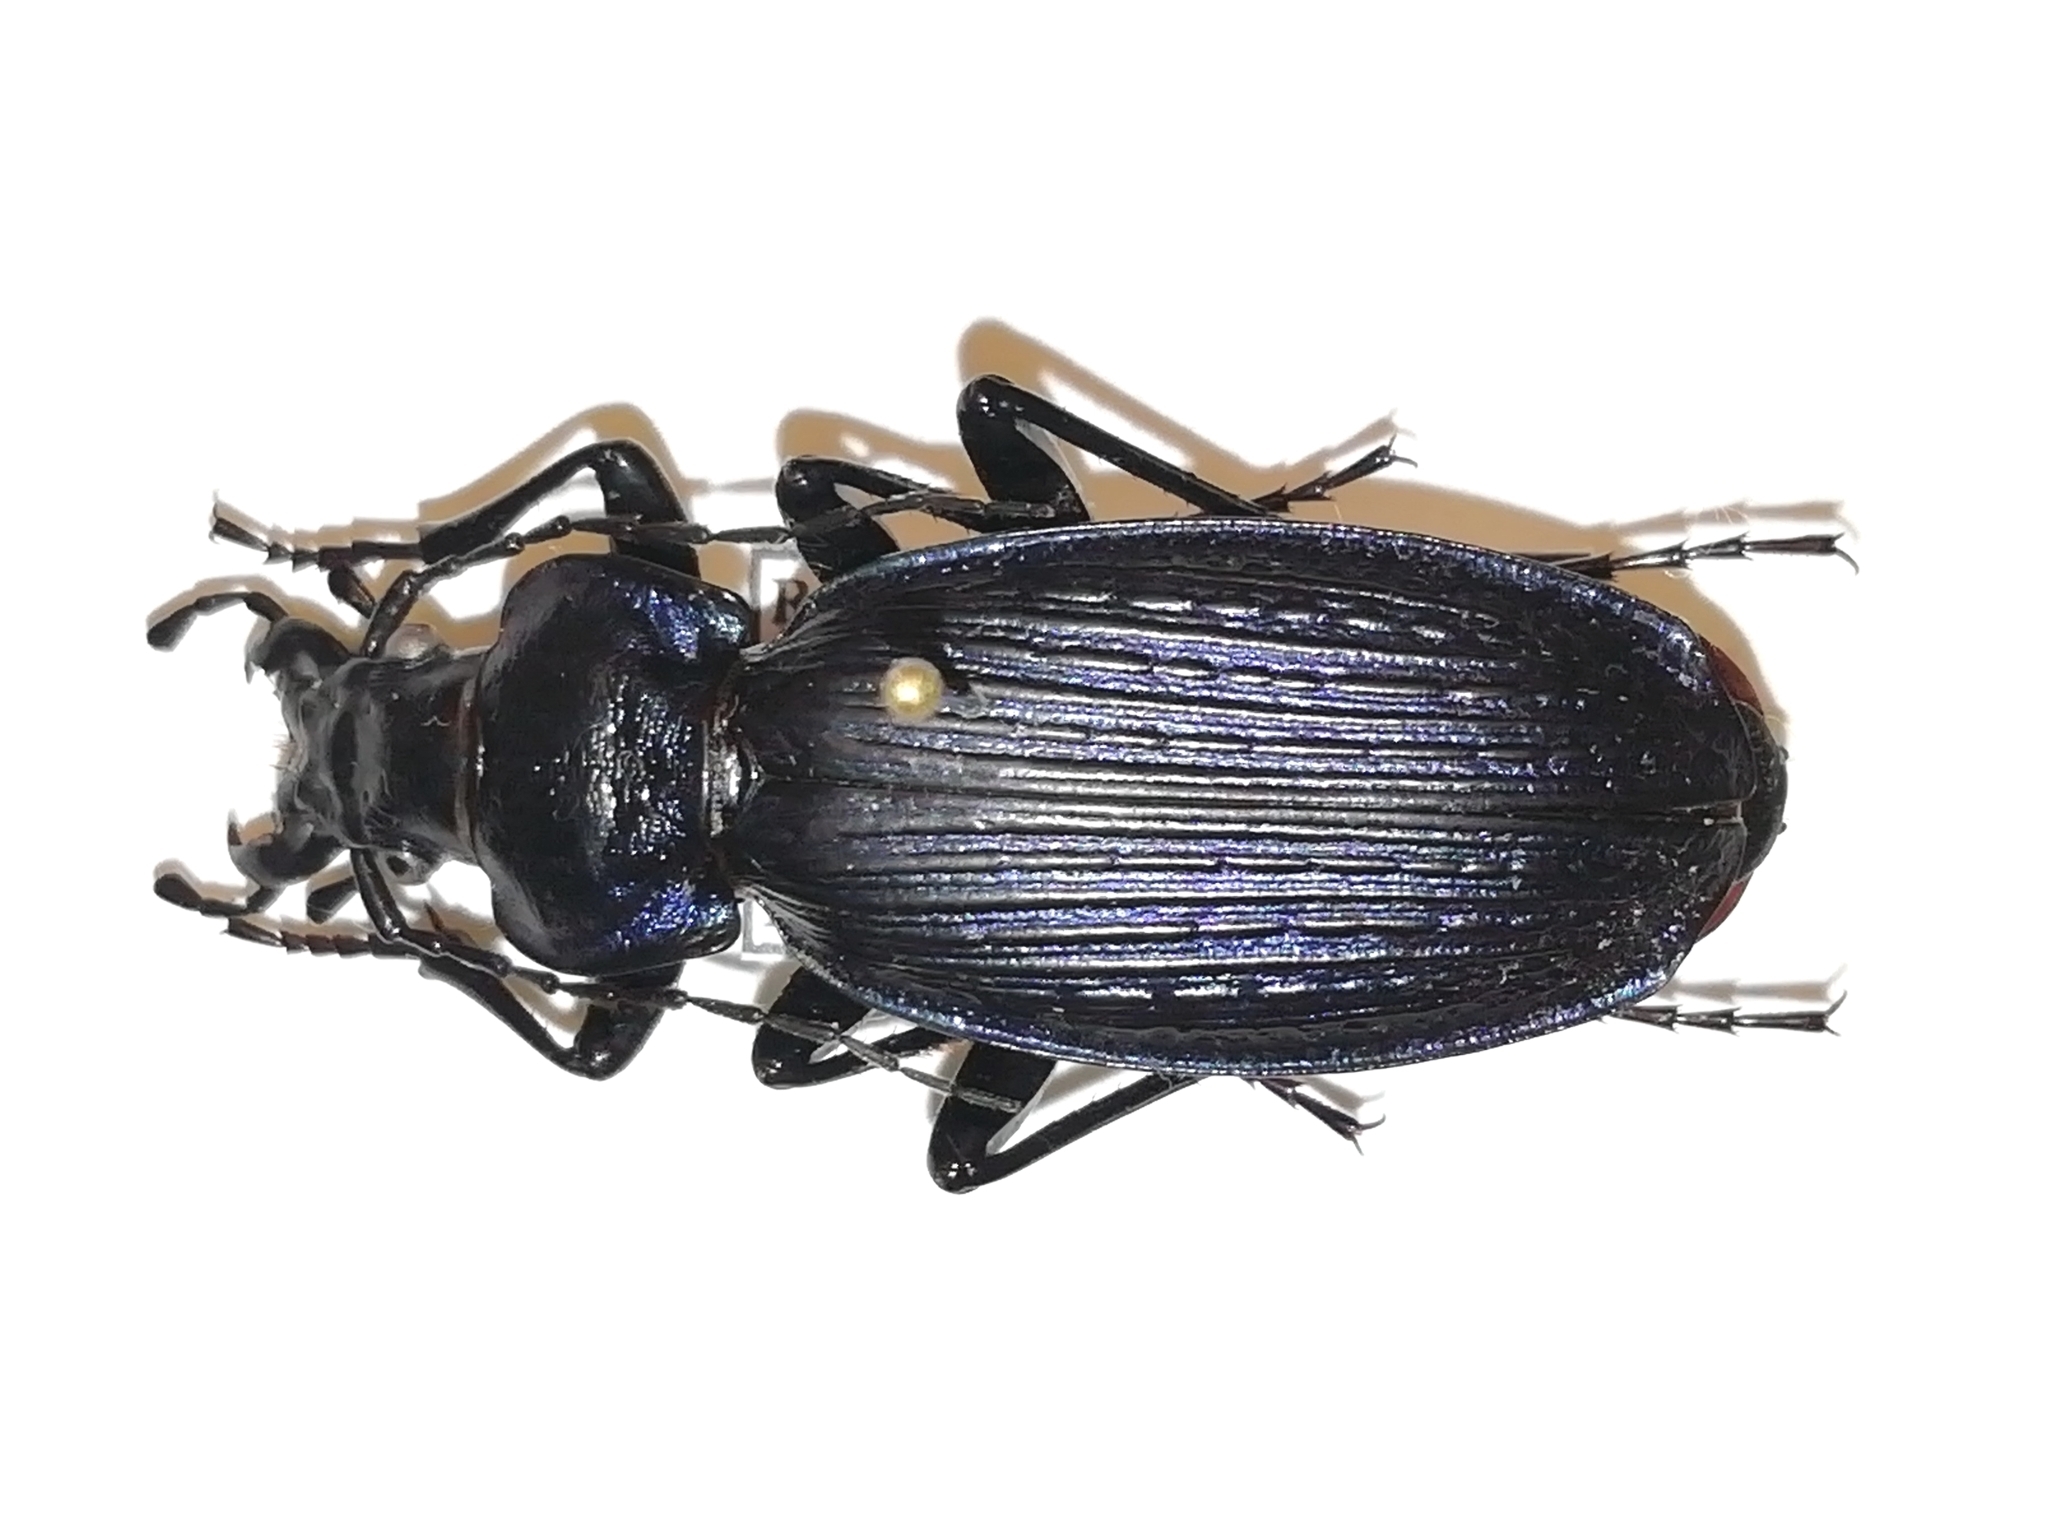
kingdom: Animalia
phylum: Arthropoda
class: Insecta
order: Coleoptera
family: Carabidae
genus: Carabus
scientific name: Carabus prometheus
